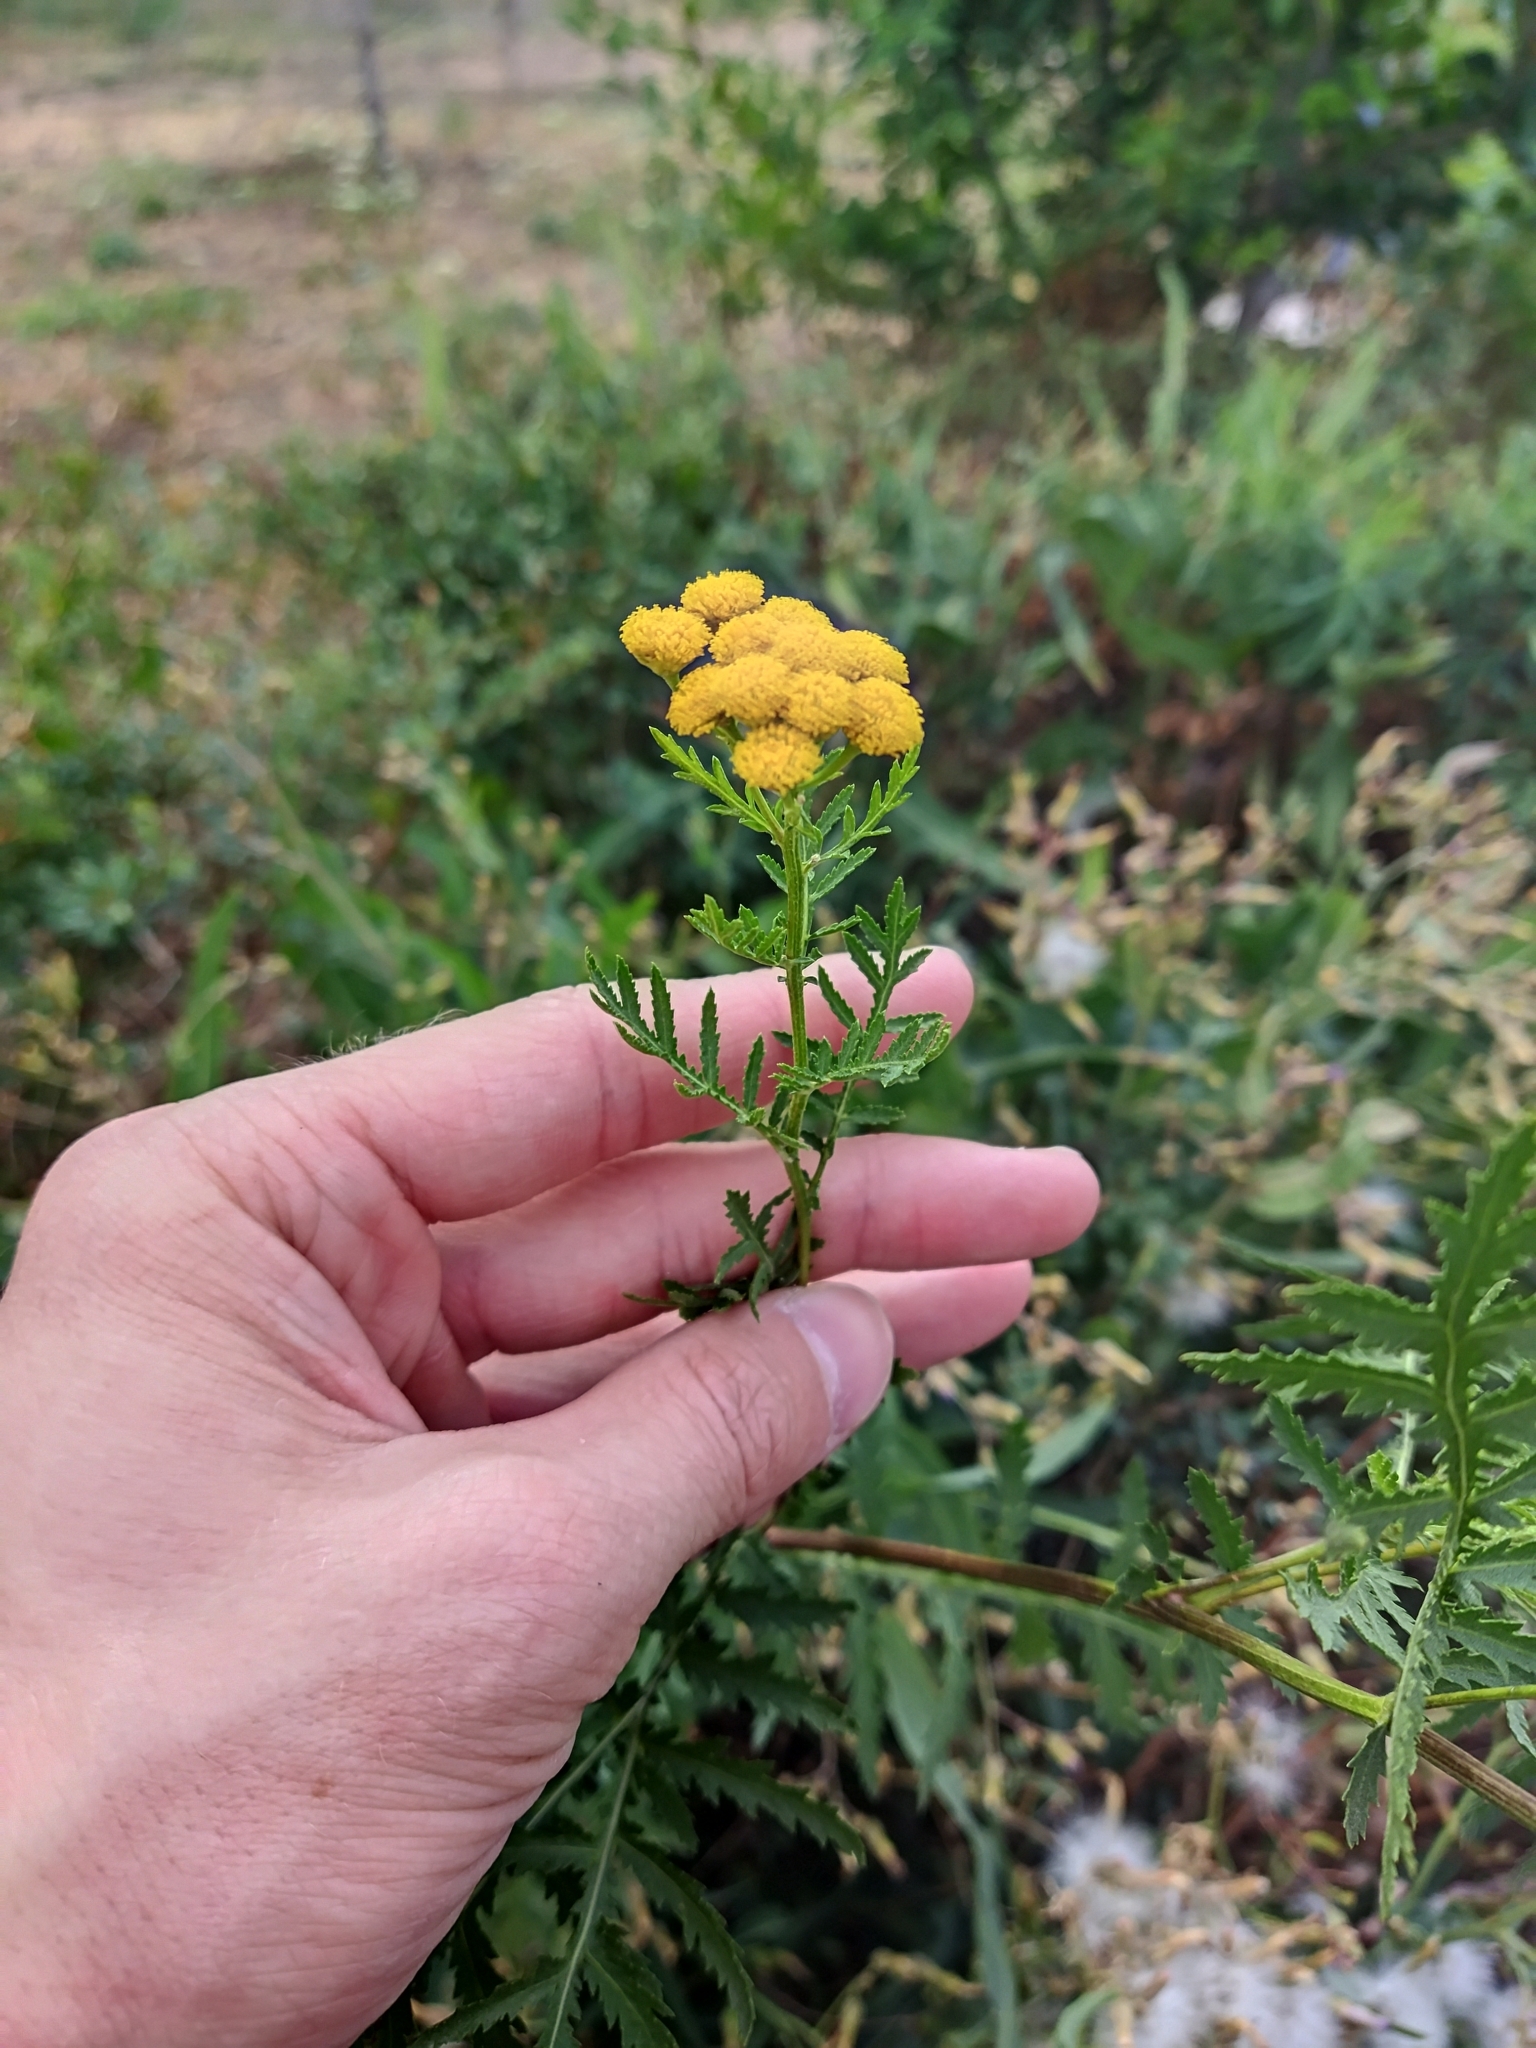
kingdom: Plantae
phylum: Tracheophyta
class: Magnoliopsida
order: Asterales
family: Asteraceae
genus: Tanacetum
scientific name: Tanacetum vulgare
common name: Common tansy
